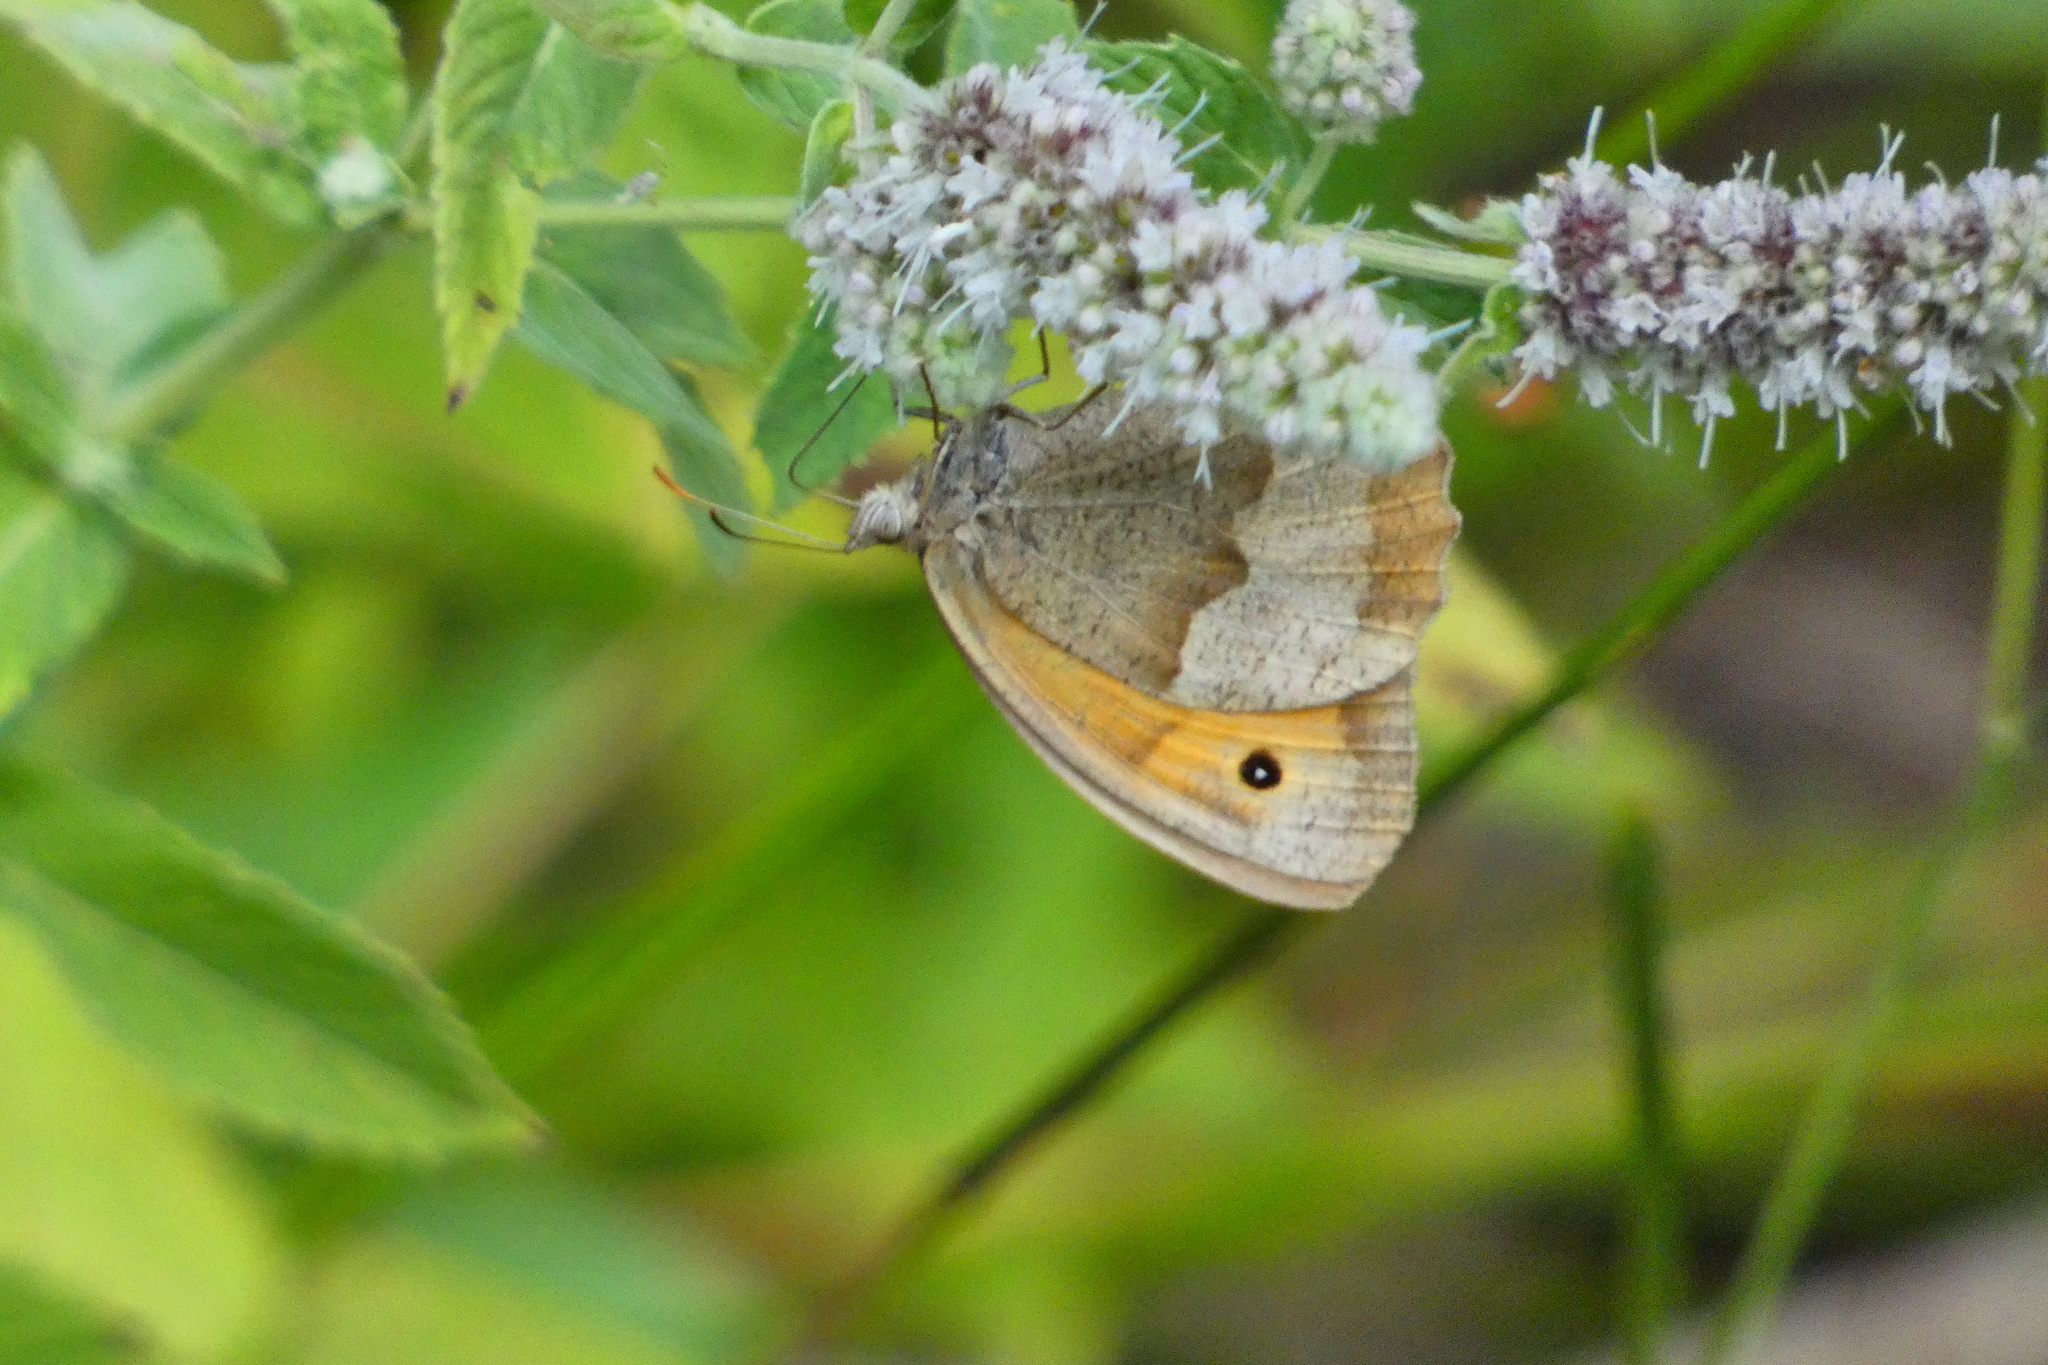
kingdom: Animalia
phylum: Arthropoda
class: Insecta
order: Lepidoptera
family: Nymphalidae
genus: Maniola
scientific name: Maniola jurtina
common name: Meadow brown
